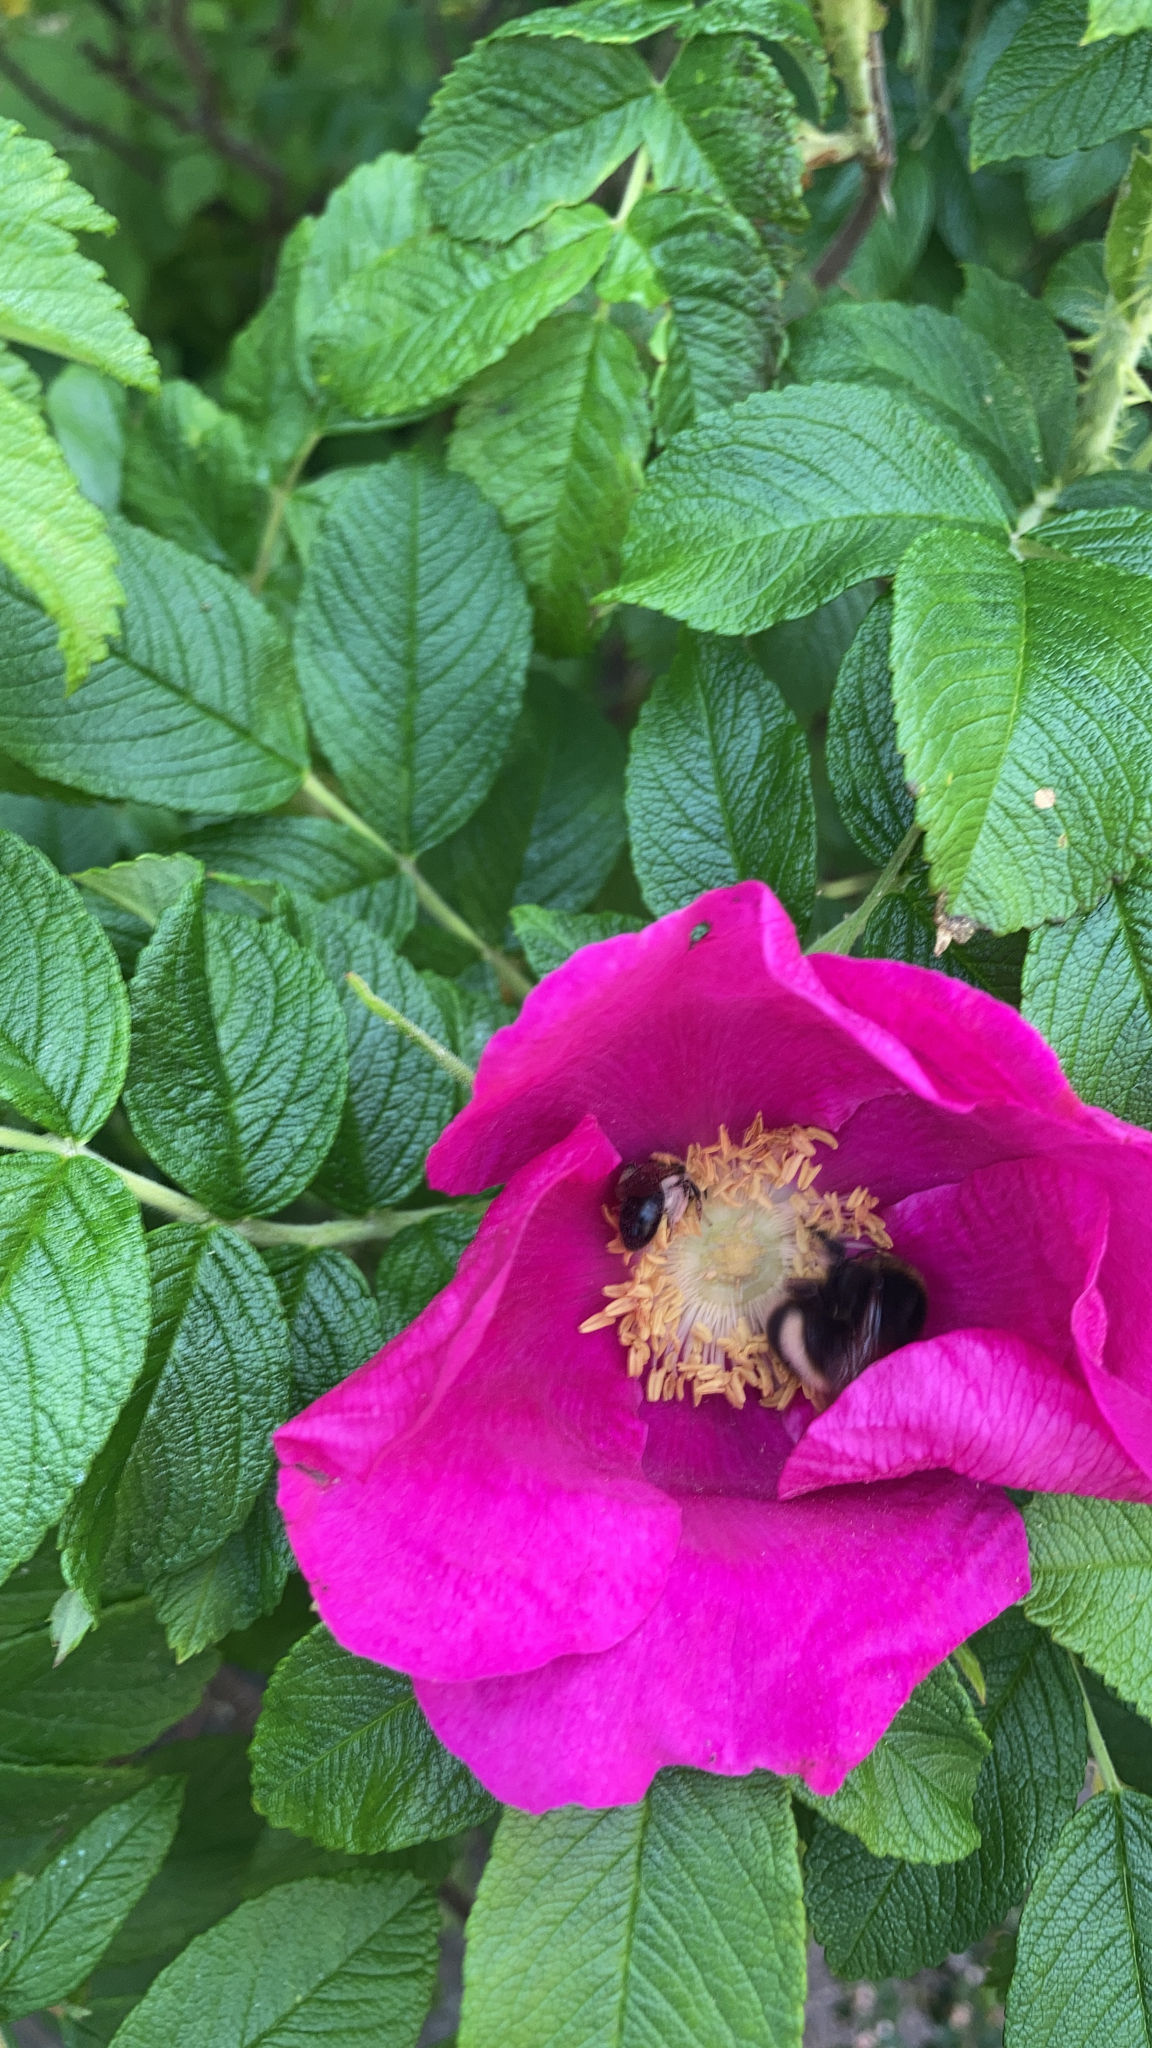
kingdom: Plantae
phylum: Tracheophyta
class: Magnoliopsida
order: Rosales
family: Rosaceae
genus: Rosa
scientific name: Rosa rugosa
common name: Japanese rose
